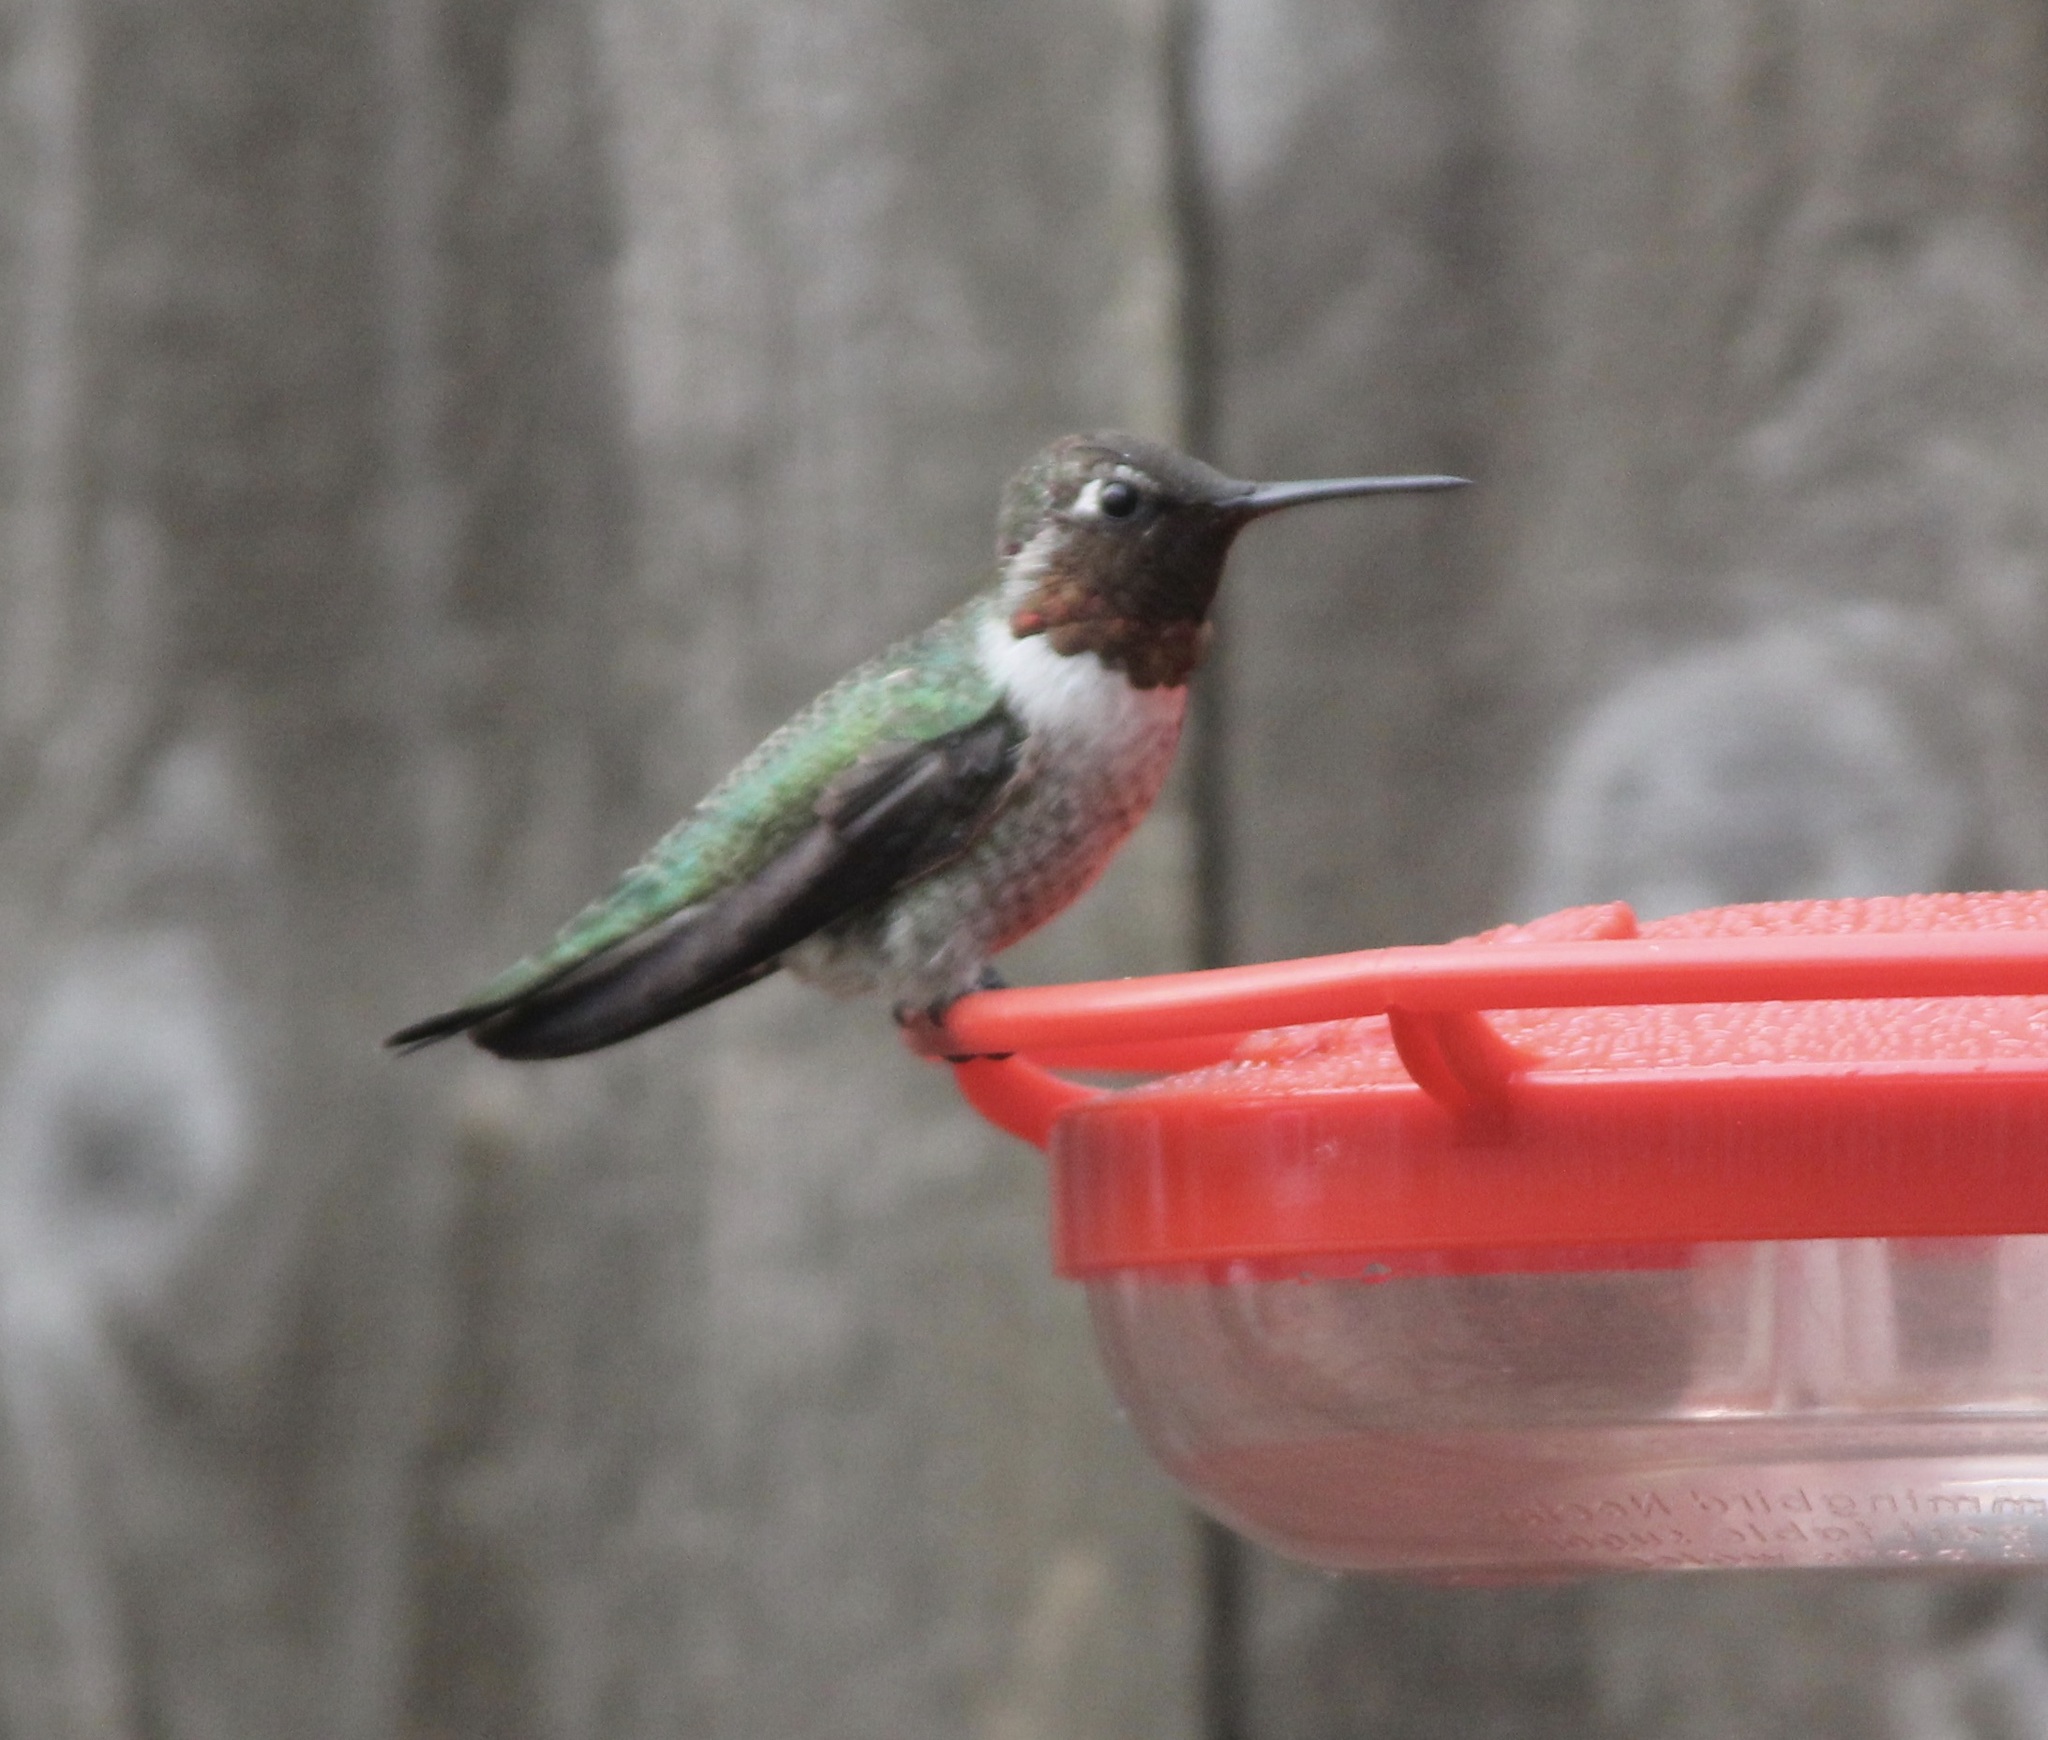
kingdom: Animalia
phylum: Chordata
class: Aves
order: Apodiformes
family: Trochilidae
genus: Calypte
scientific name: Calypte anna
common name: Anna's hummingbird
